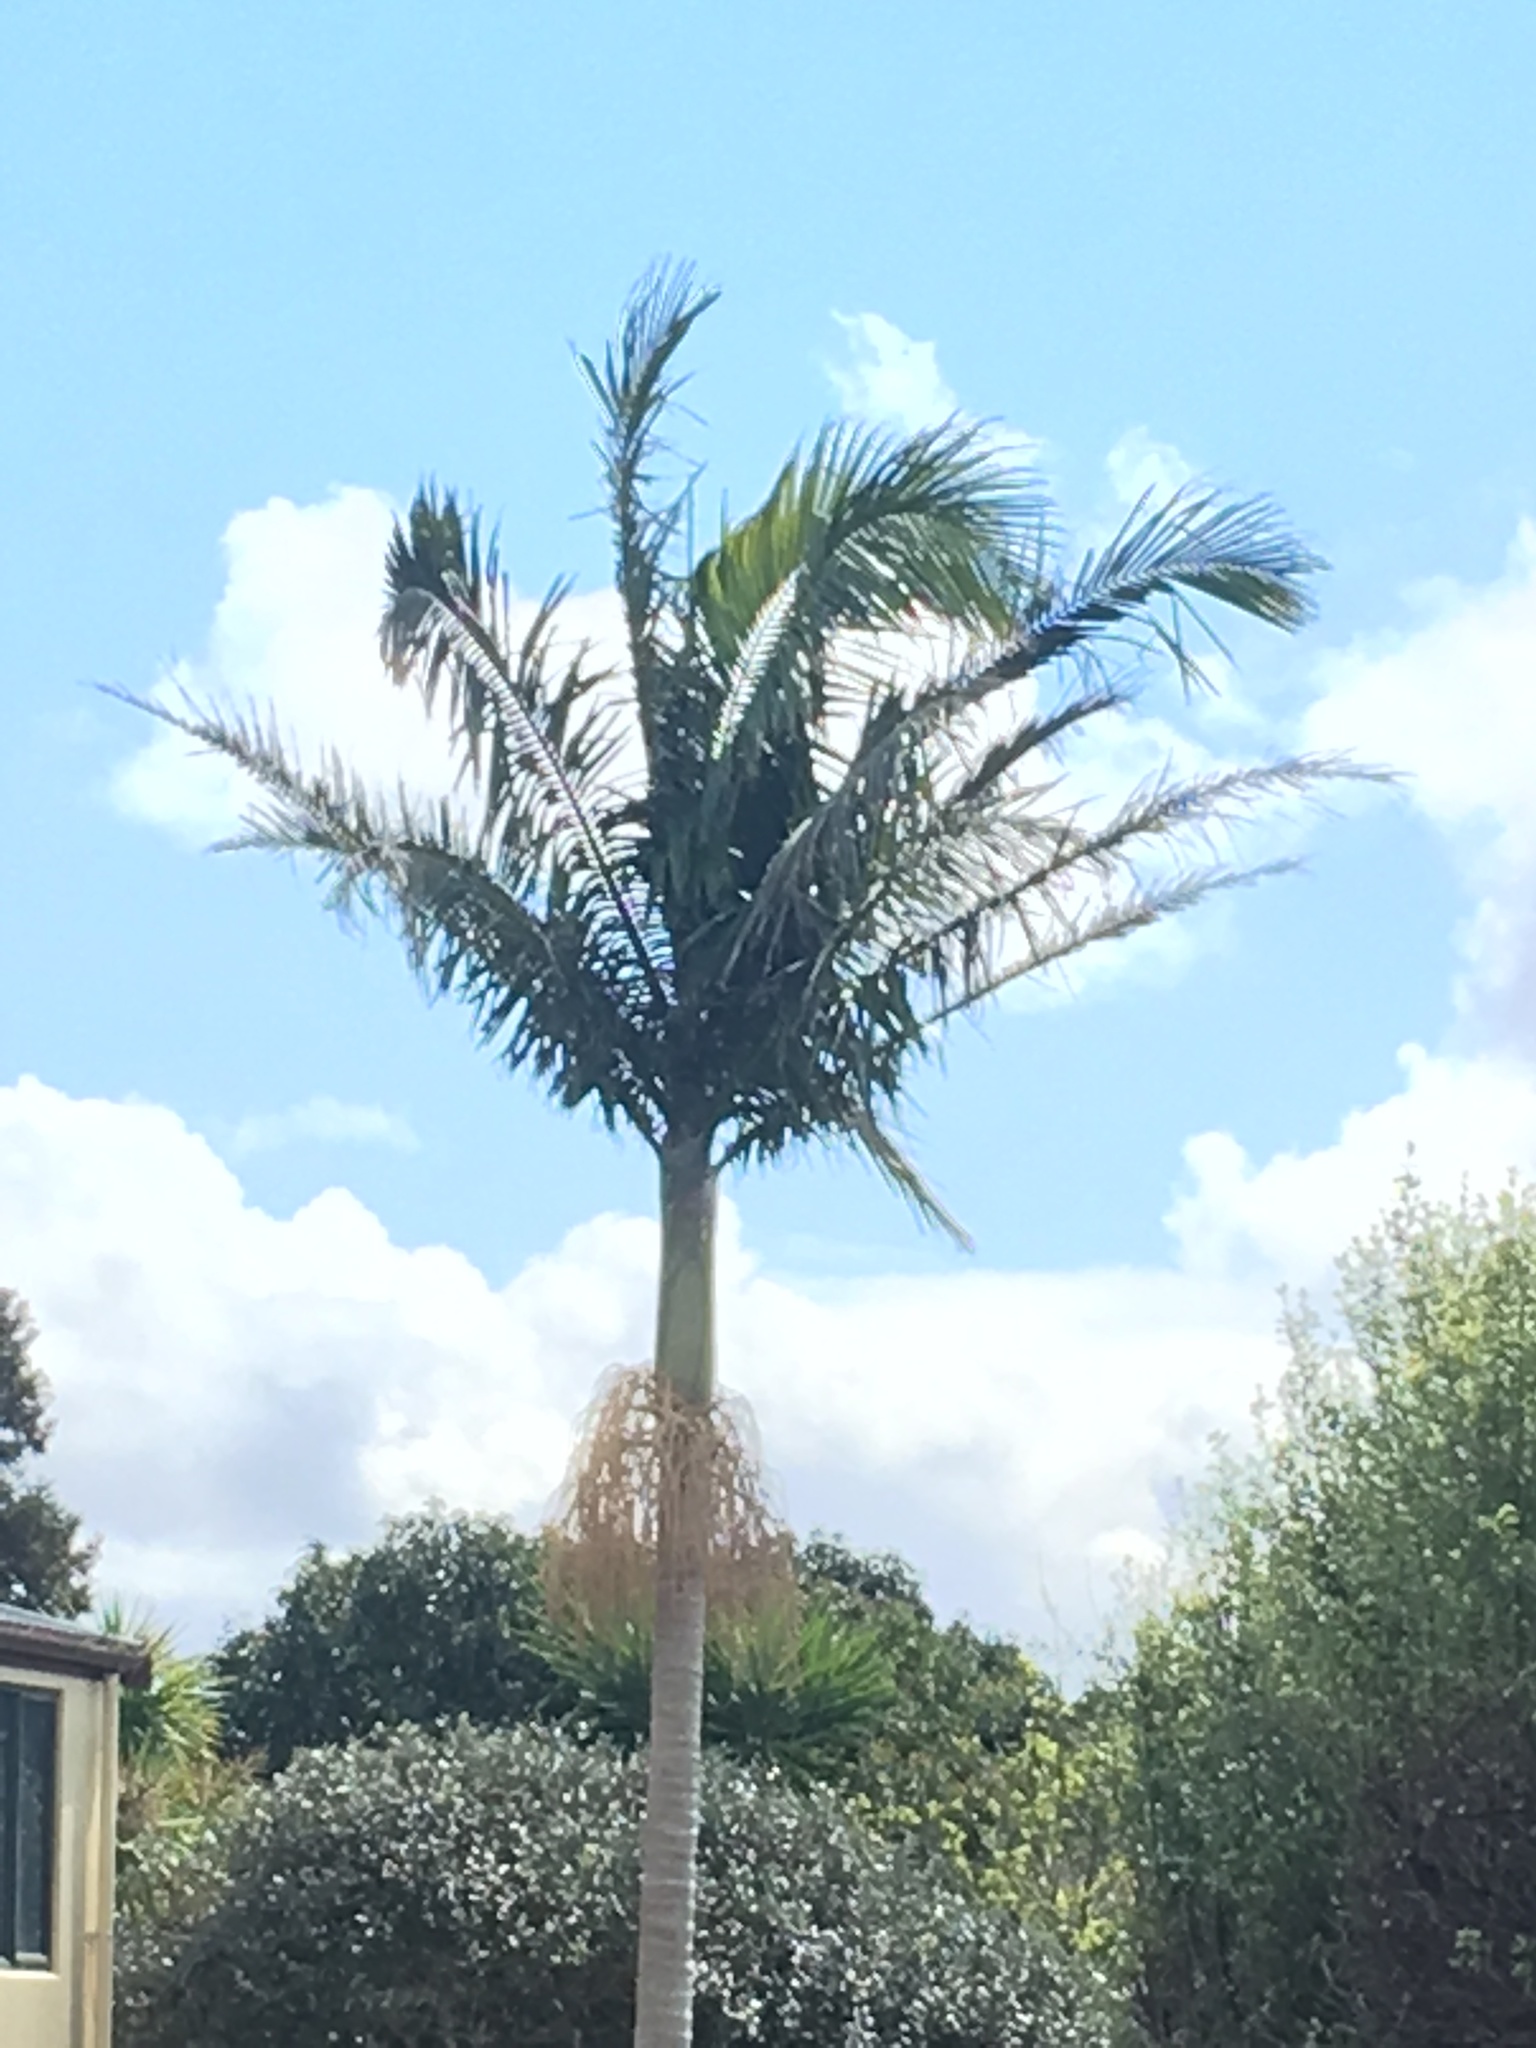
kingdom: Plantae
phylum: Tracheophyta
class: Liliopsida
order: Arecales
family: Arecaceae
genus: Archontophoenix
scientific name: Archontophoenix cunninghamiana
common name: Piccabeen bangalow palm
